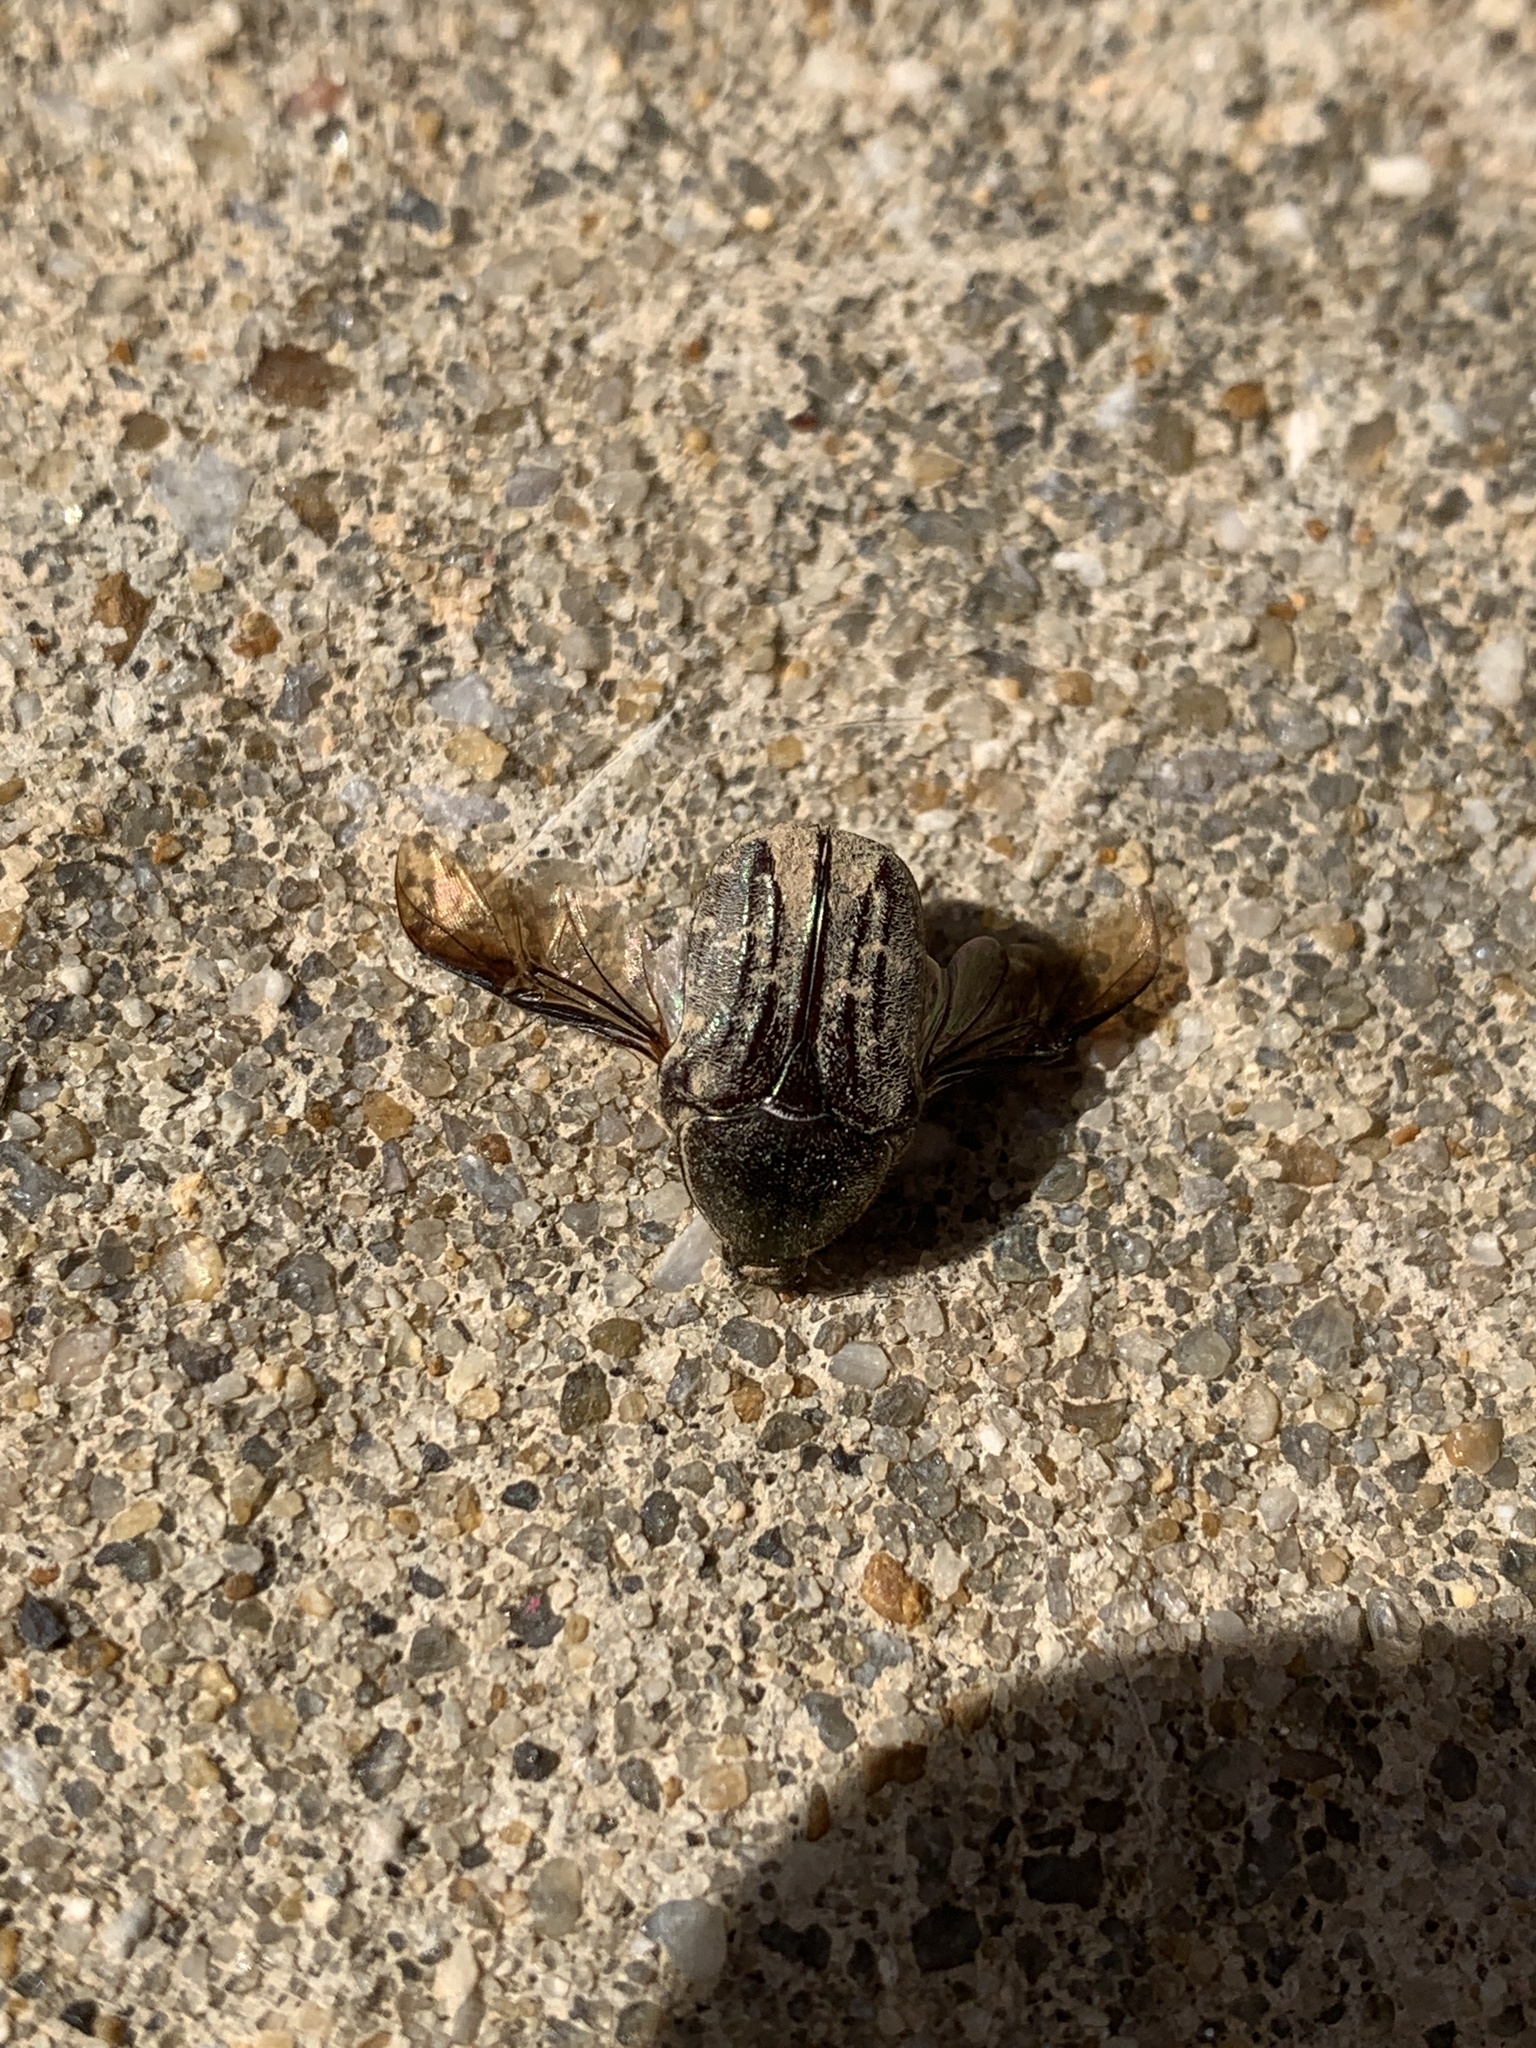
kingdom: Animalia
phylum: Arthropoda
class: Insecta
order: Coleoptera
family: Scarabaeidae
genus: Euphoria
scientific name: Euphoria sepulcralis
